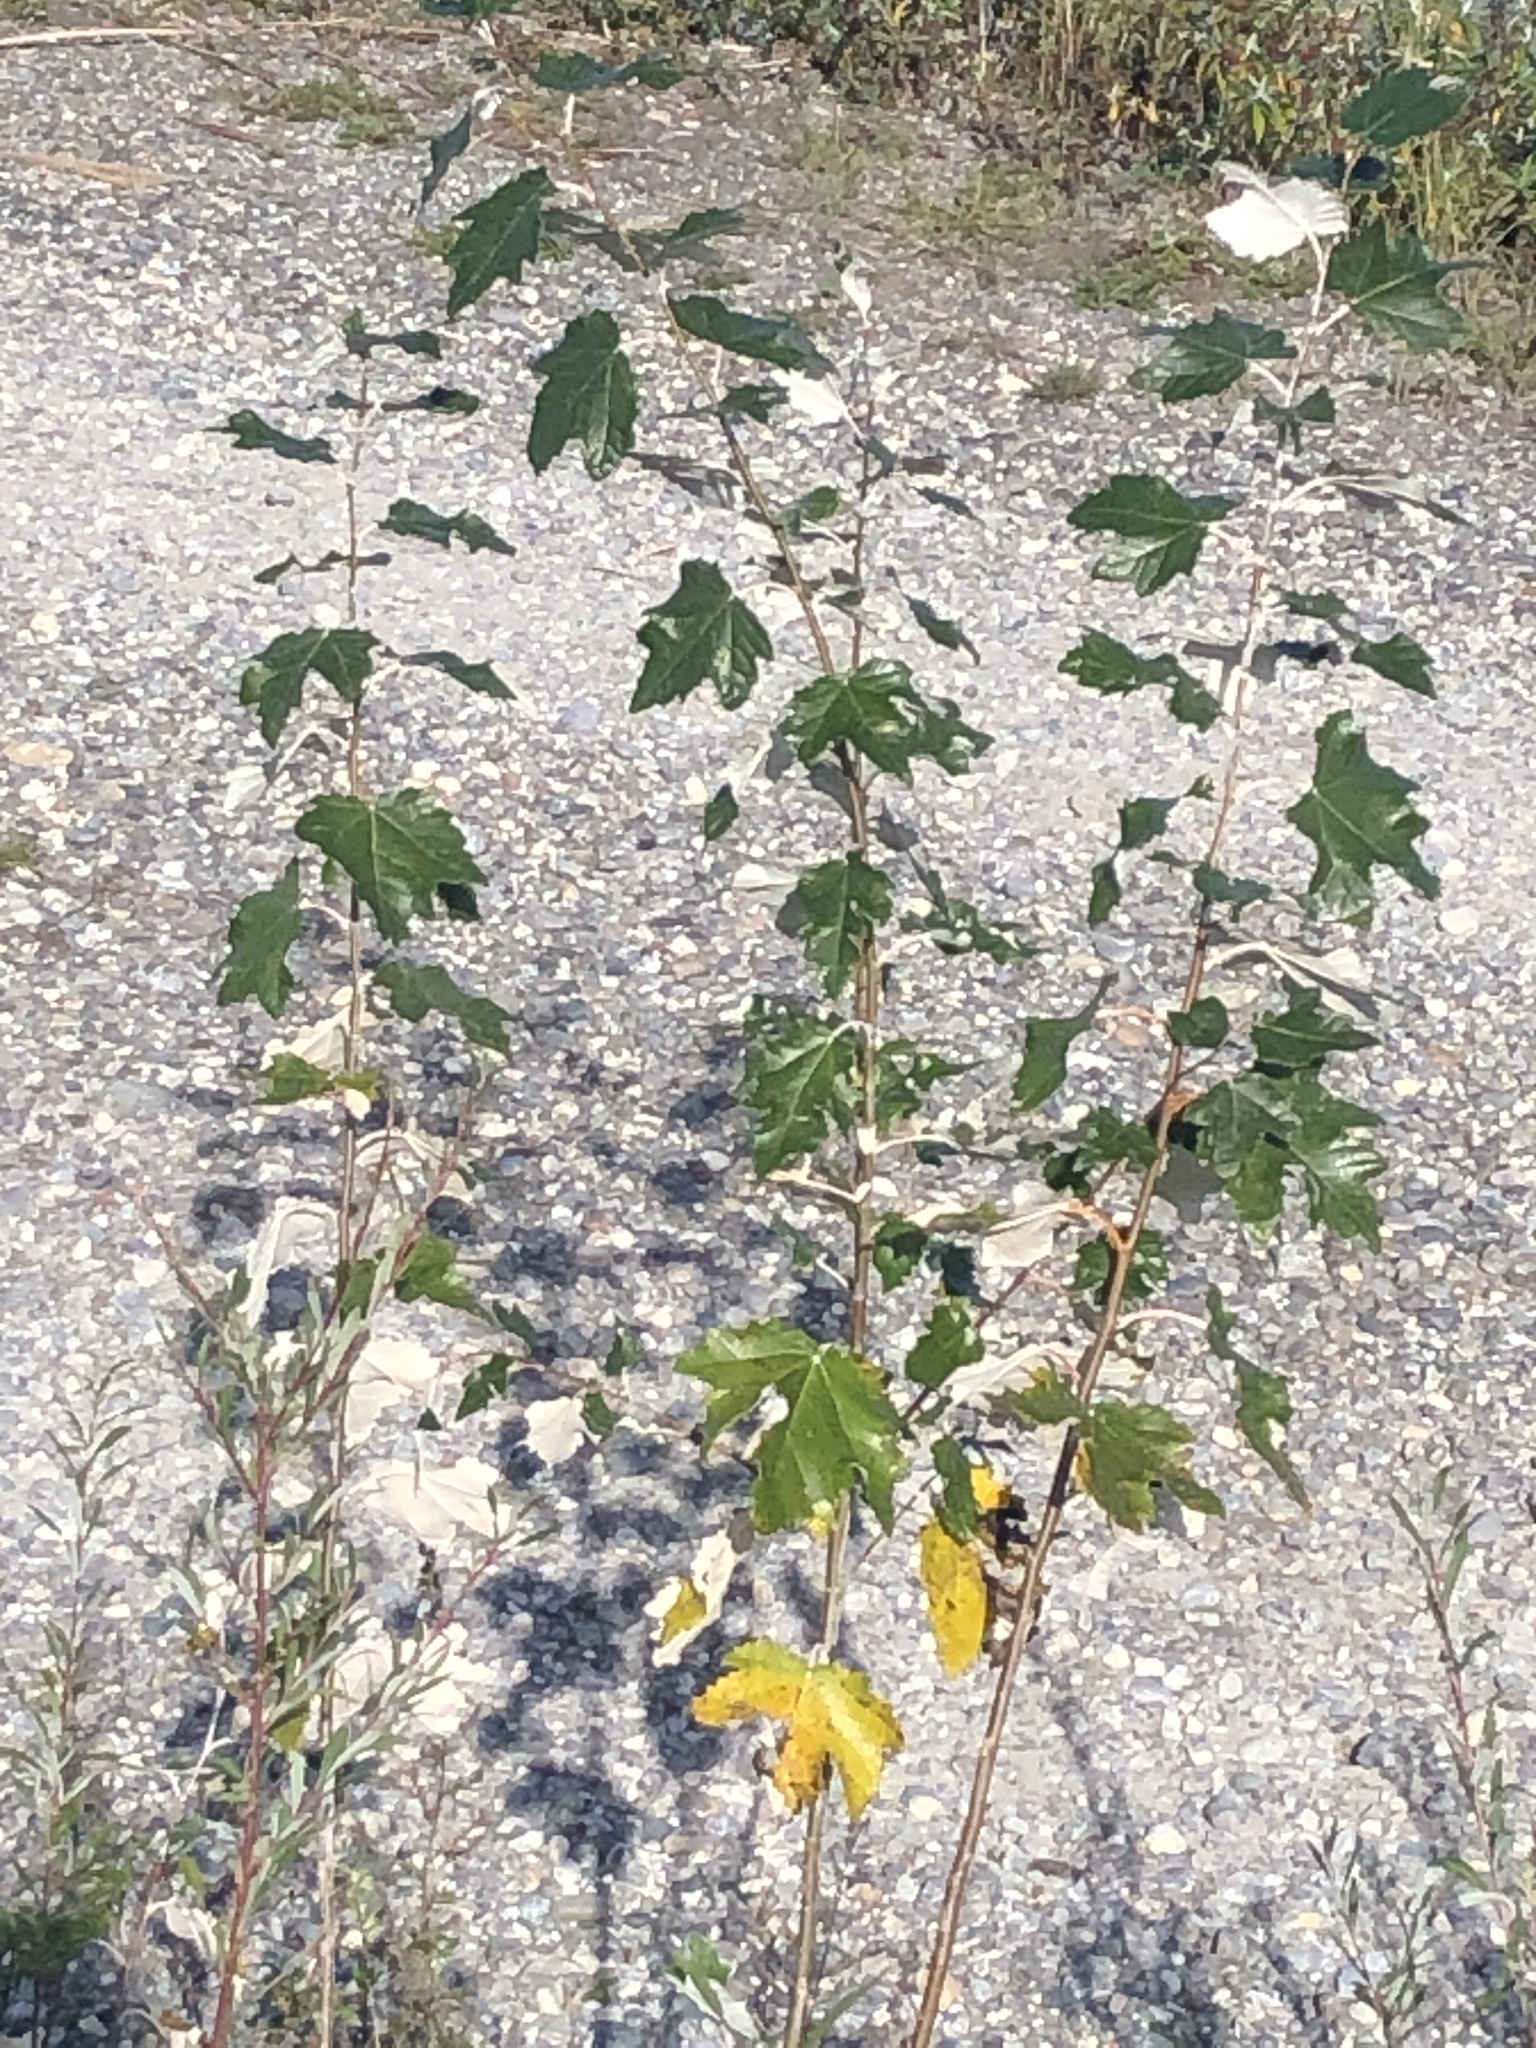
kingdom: Plantae
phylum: Tracheophyta
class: Magnoliopsida
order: Malpighiales
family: Salicaceae
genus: Populus
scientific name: Populus alba
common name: White poplar
